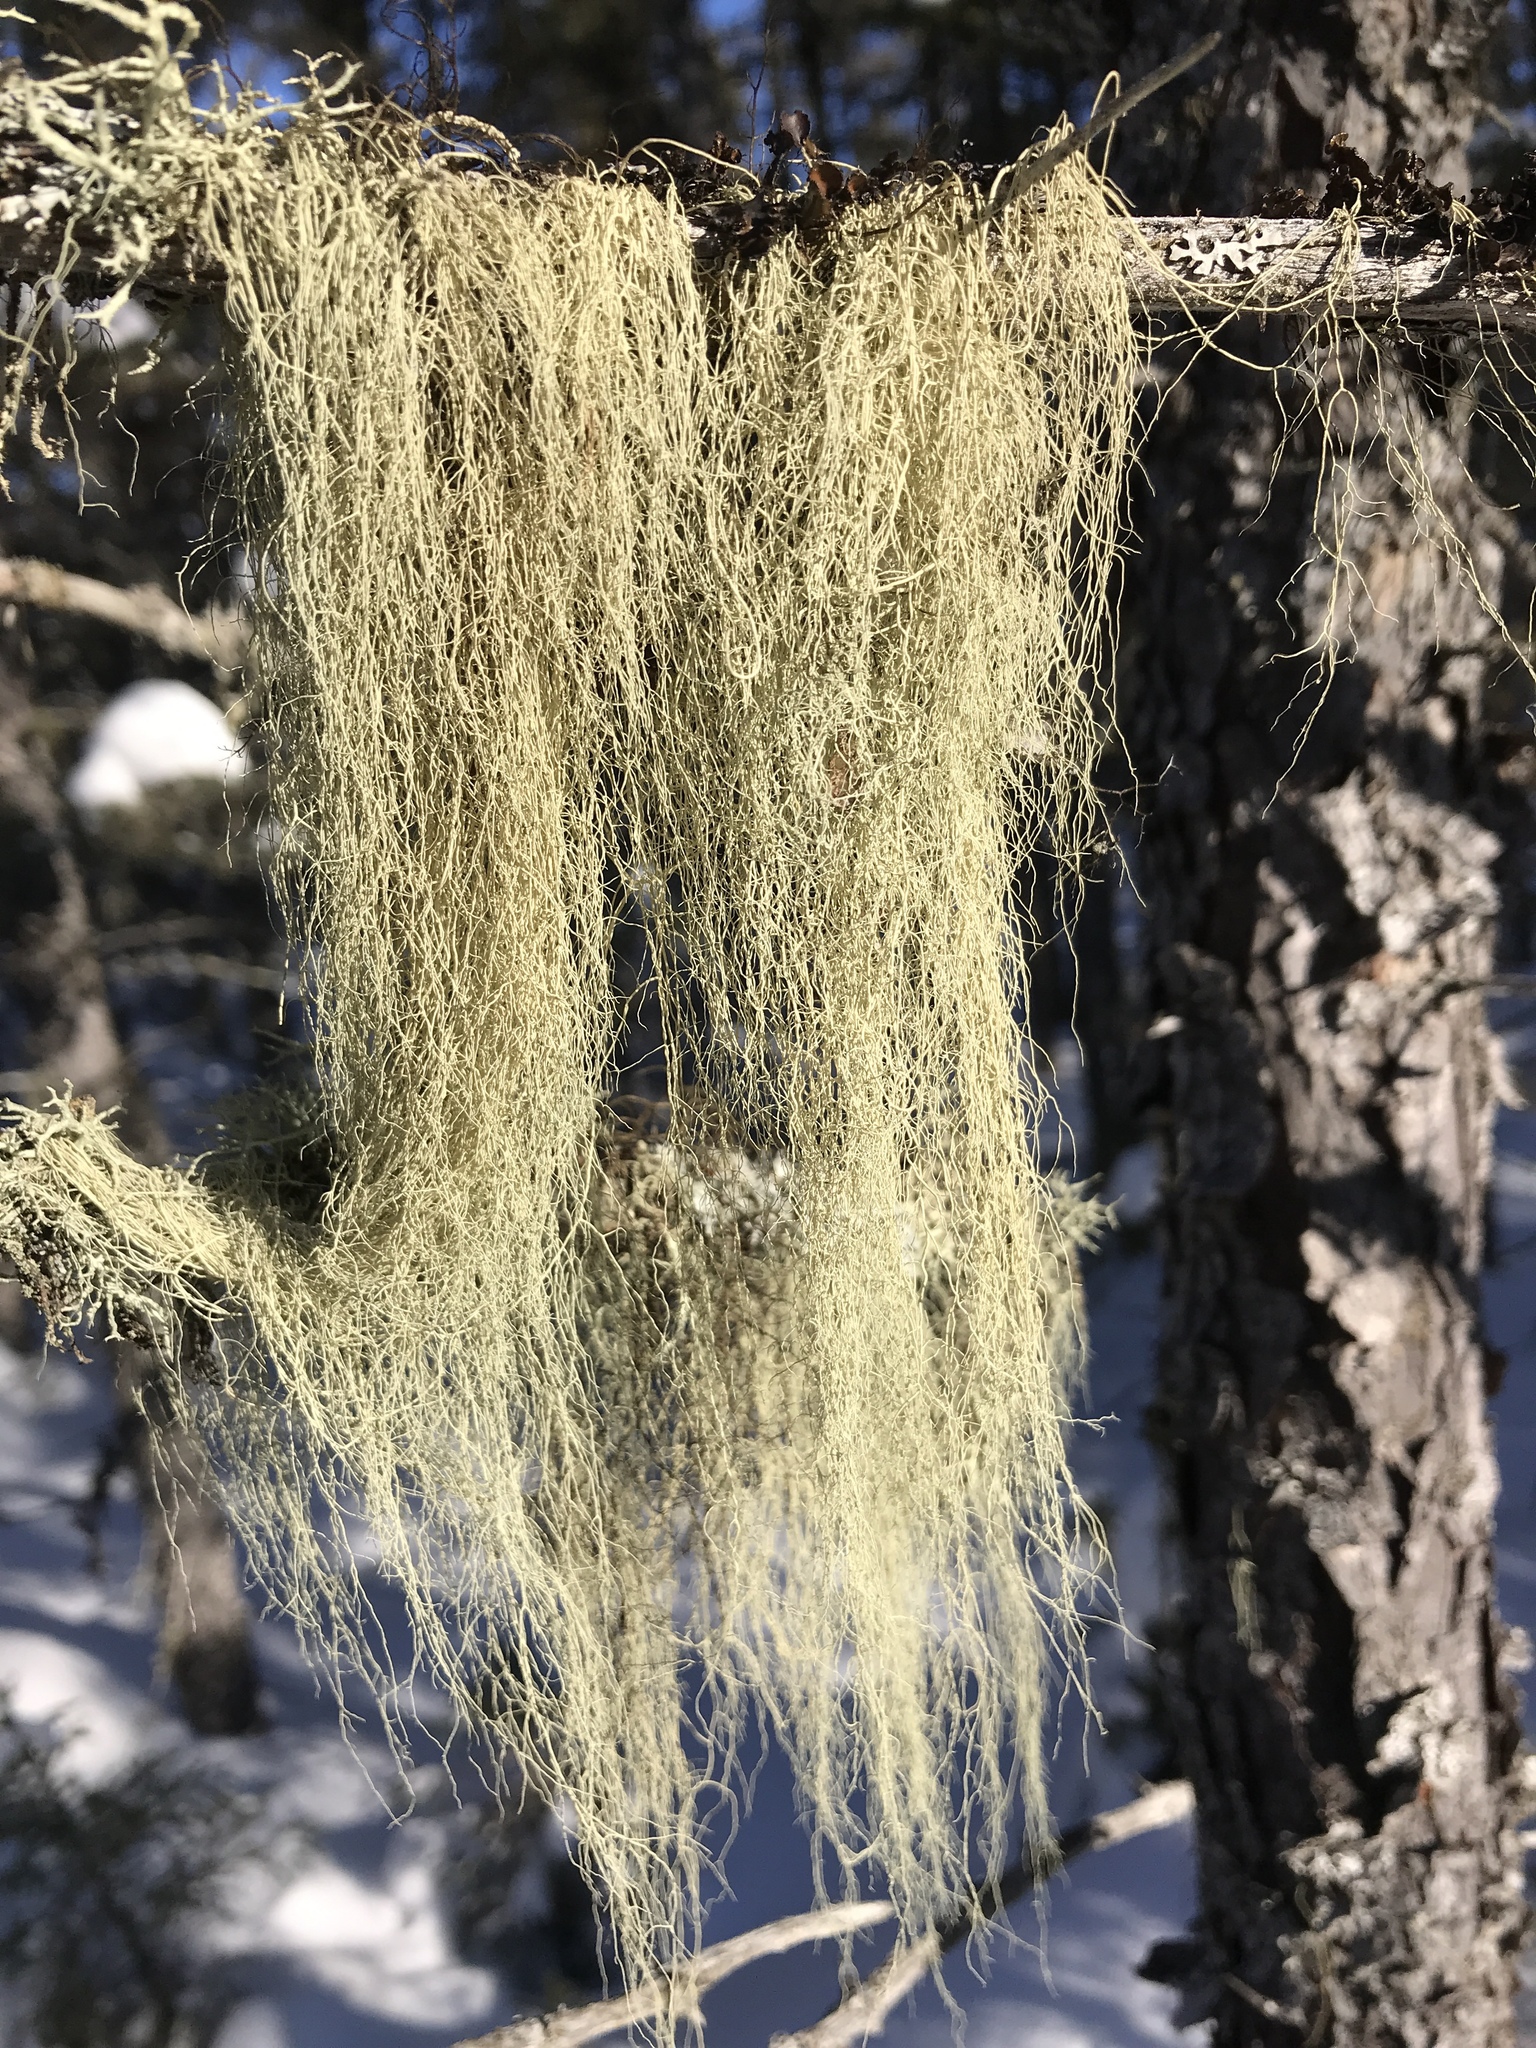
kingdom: Fungi
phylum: Ascomycota
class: Lecanoromycetes
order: Lecanorales
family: Parmeliaceae
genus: Usnea
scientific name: Usnea cavernosa
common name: Pitted beard lichen
